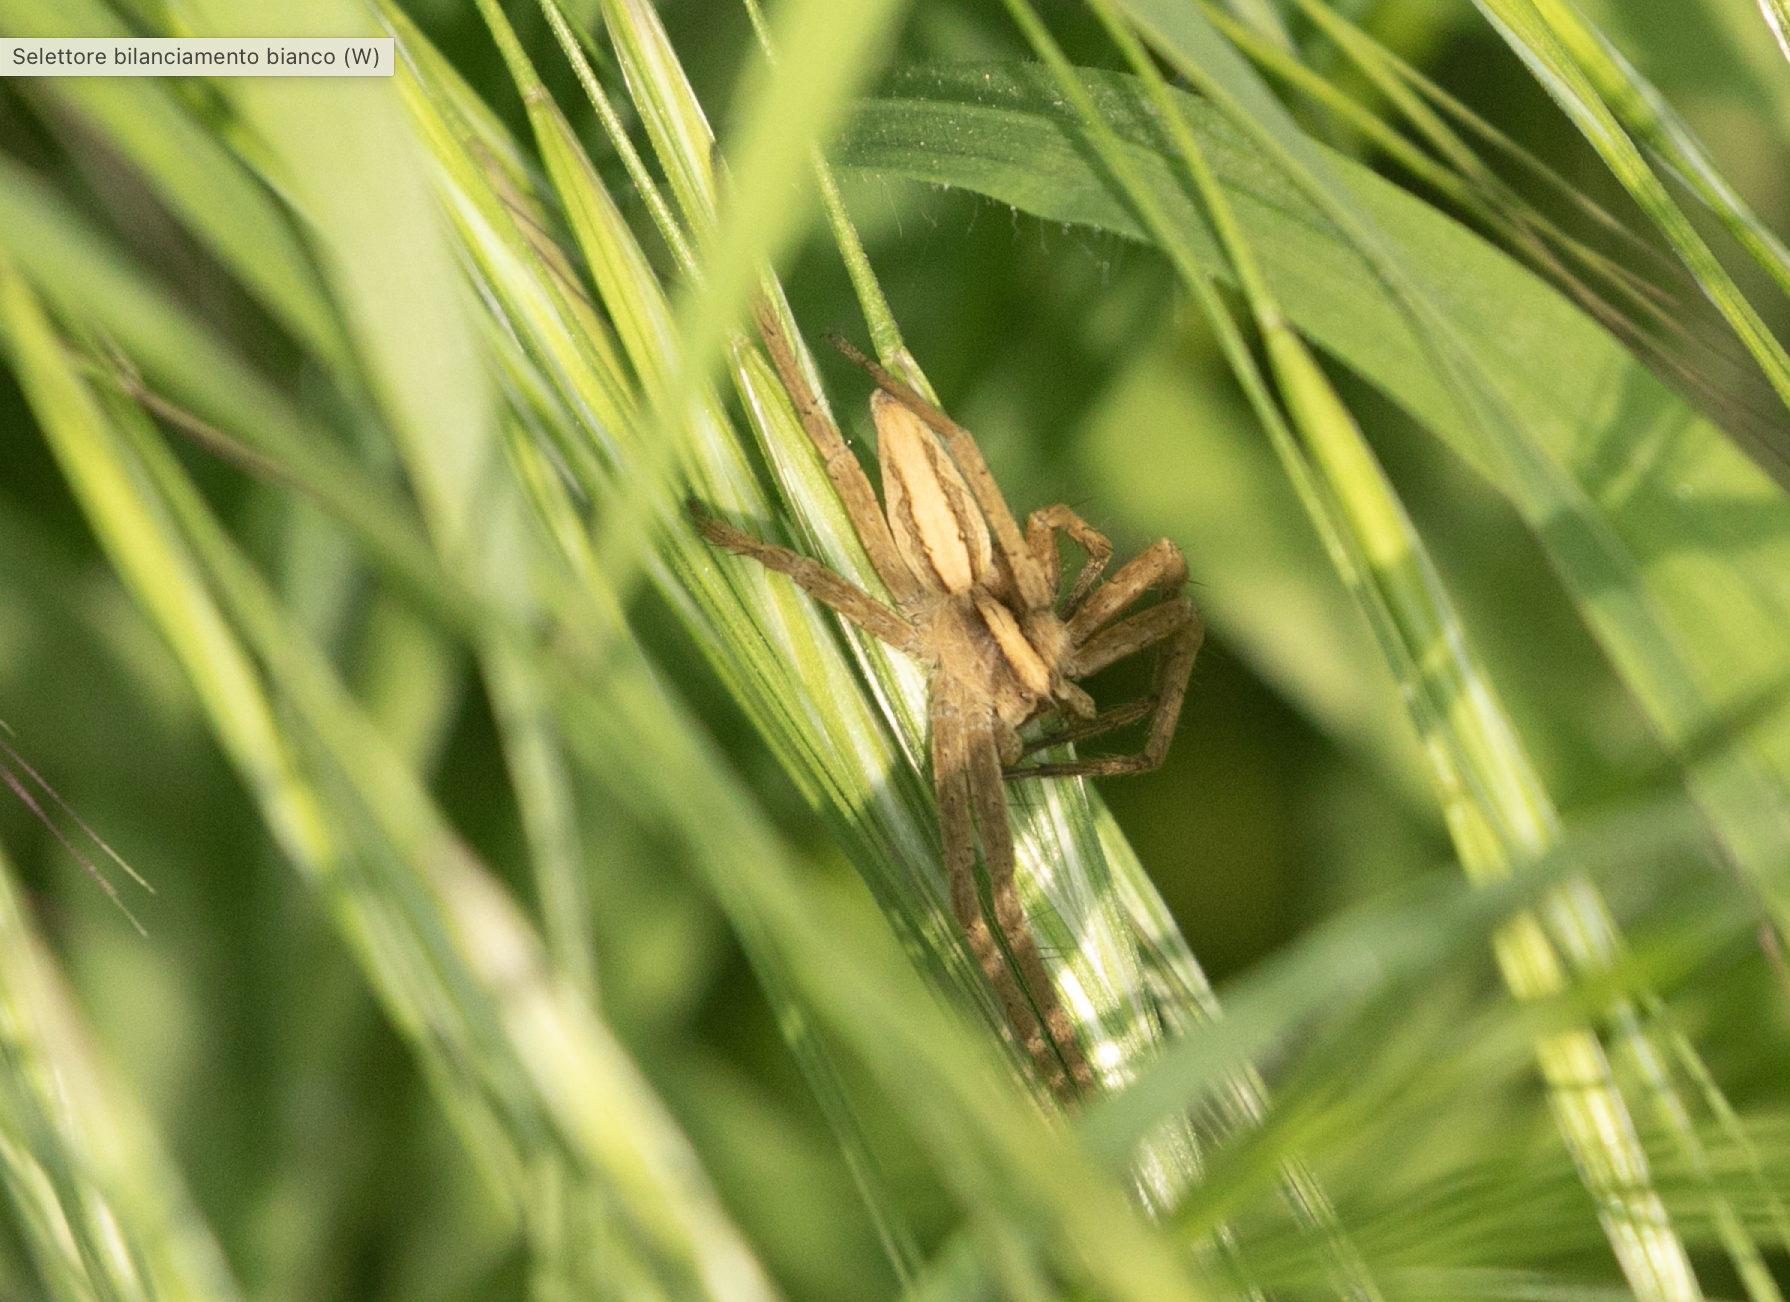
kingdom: Animalia
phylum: Arthropoda
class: Arachnida
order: Araneae
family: Pisauridae
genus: Pisaura
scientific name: Pisaura mirabilis
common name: Tent spider
